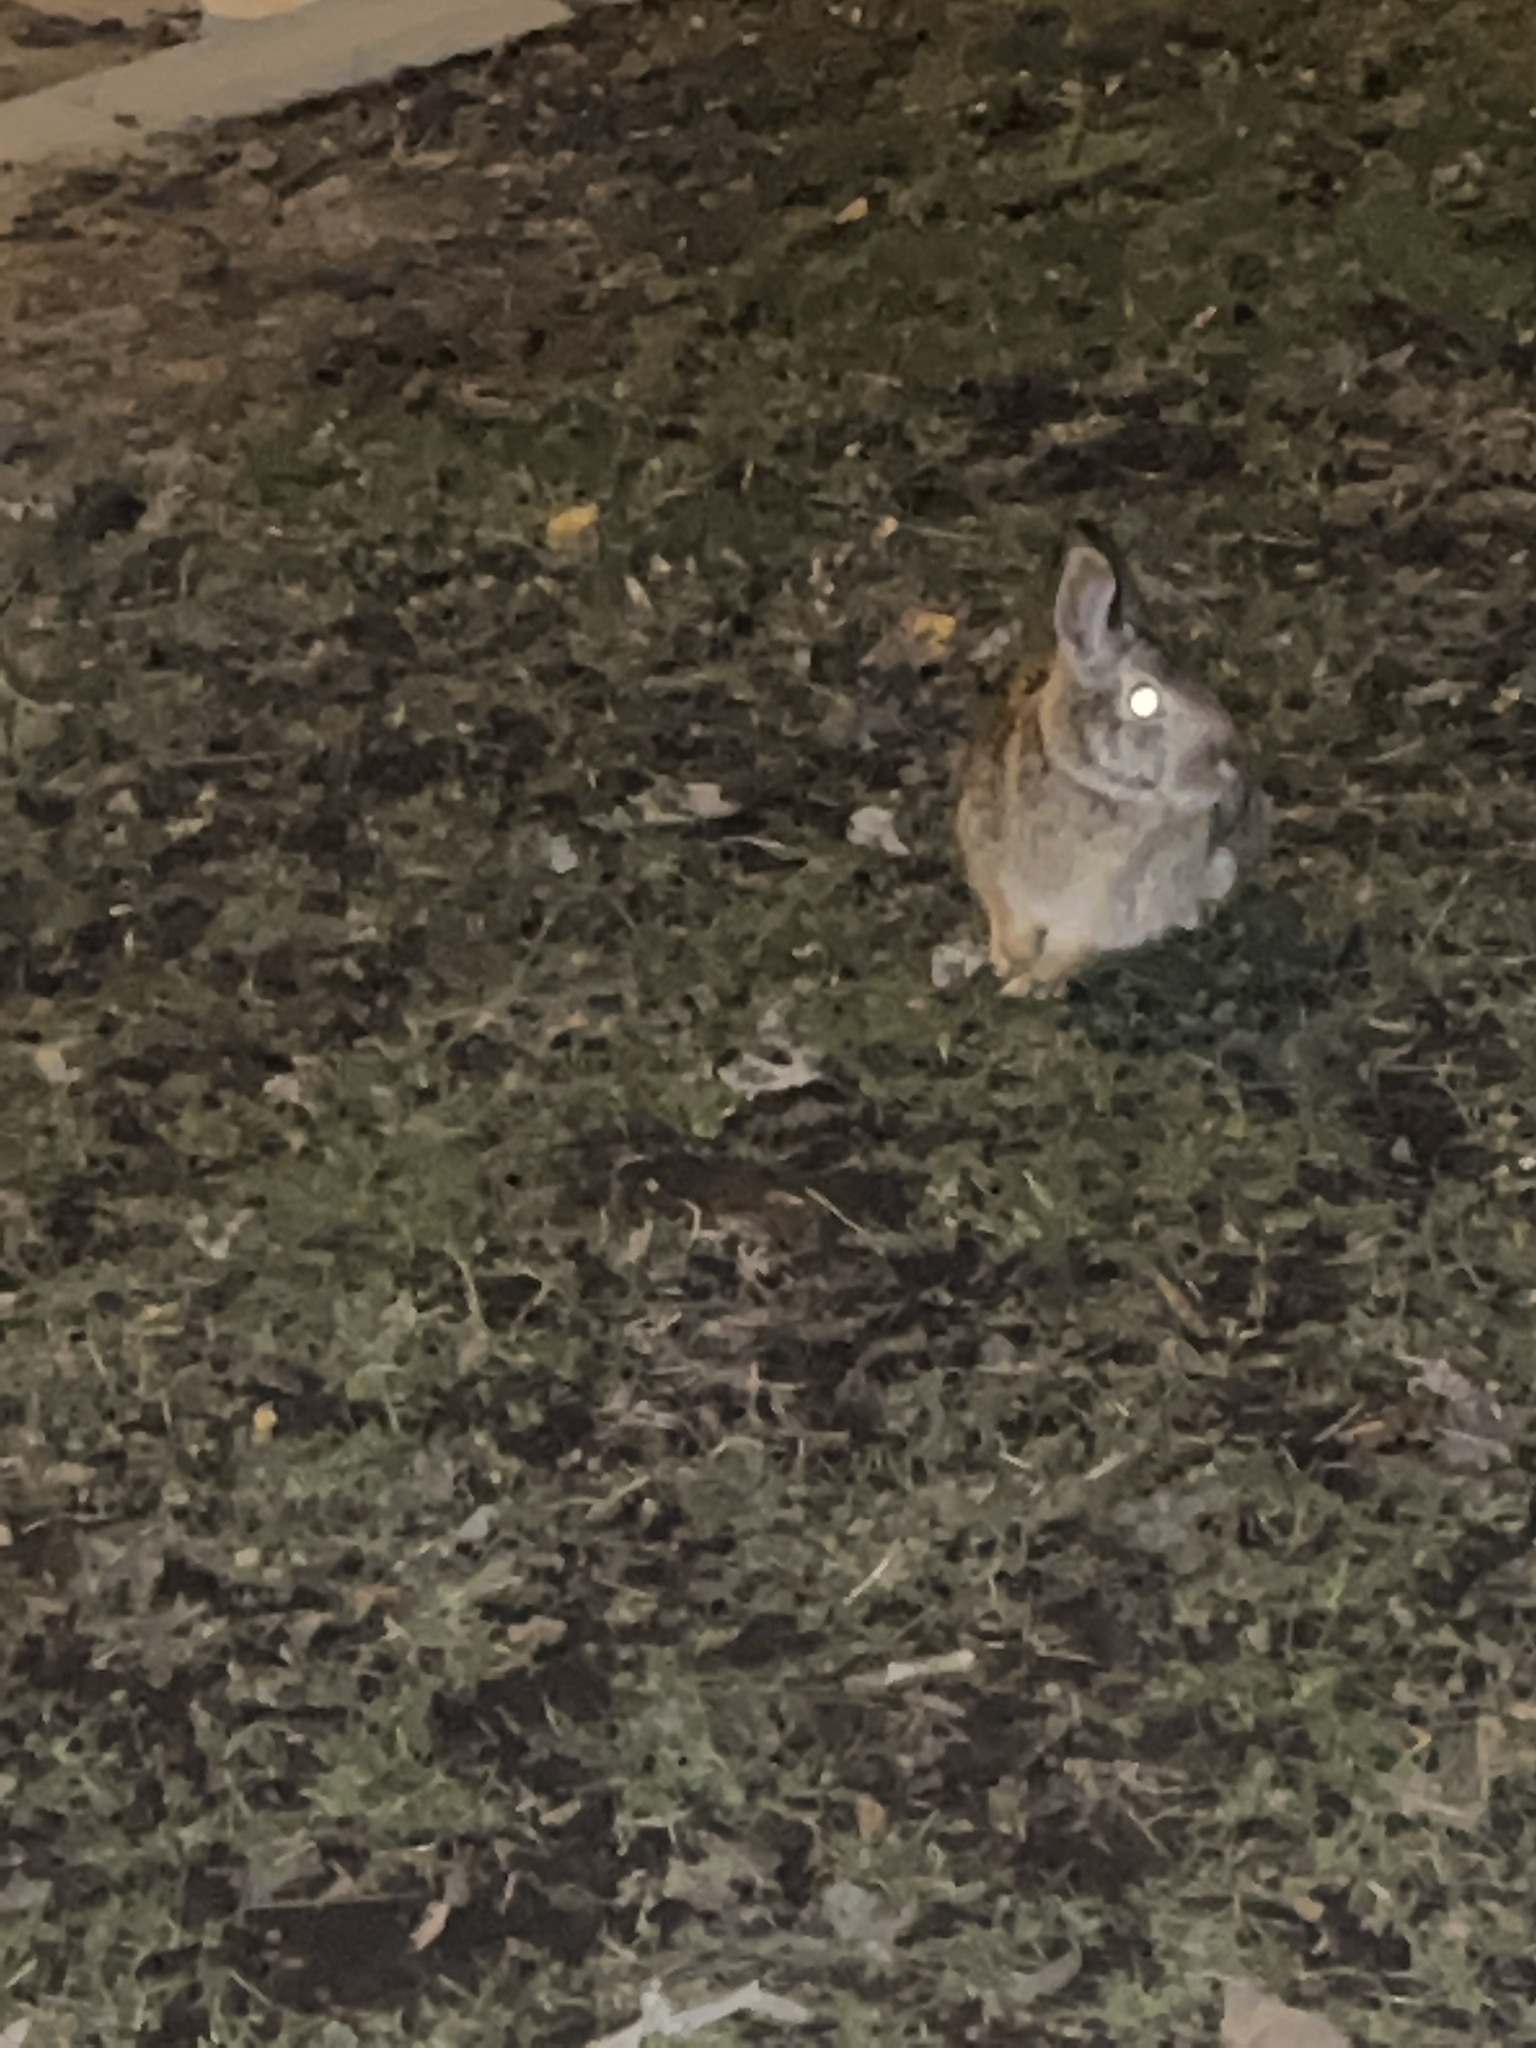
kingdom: Animalia
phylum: Chordata
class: Mammalia
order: Lagomorpha
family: Leporidae
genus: Sylvilagus
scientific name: Sylvilagus floridanus
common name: Eastern cottontail
